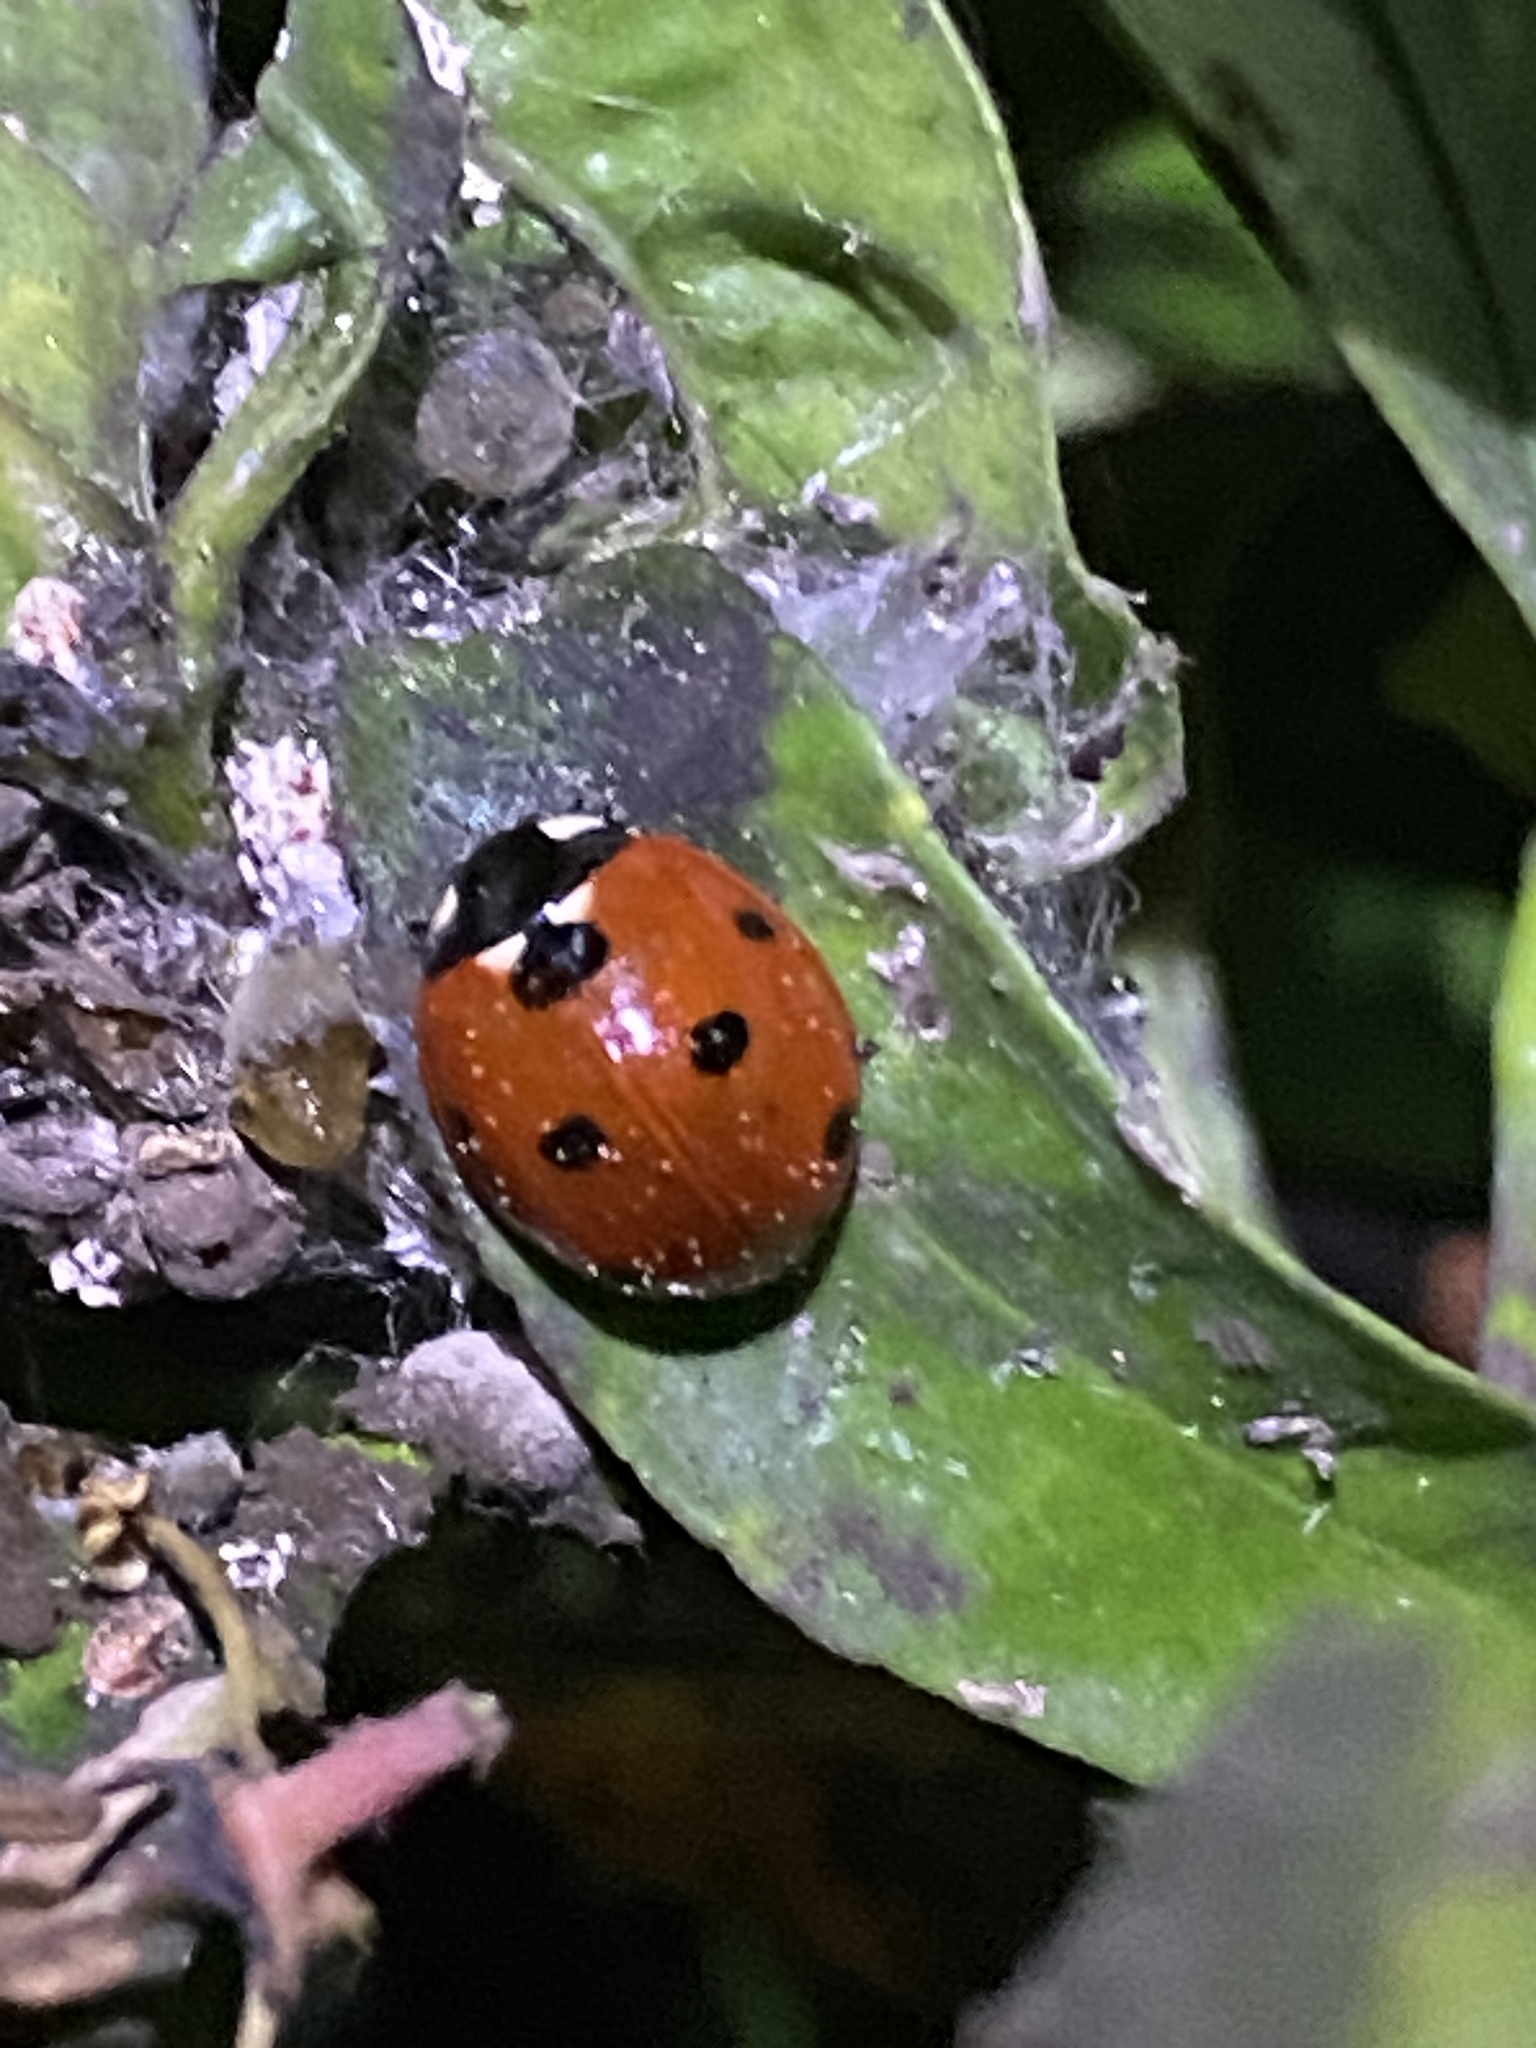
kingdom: Animalia
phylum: Arthropoda
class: Insecta
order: Coleoptera
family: Coccinellidae
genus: Coccinella
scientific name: Coccinella septempunctata
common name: Sevenspotted lady beetle
